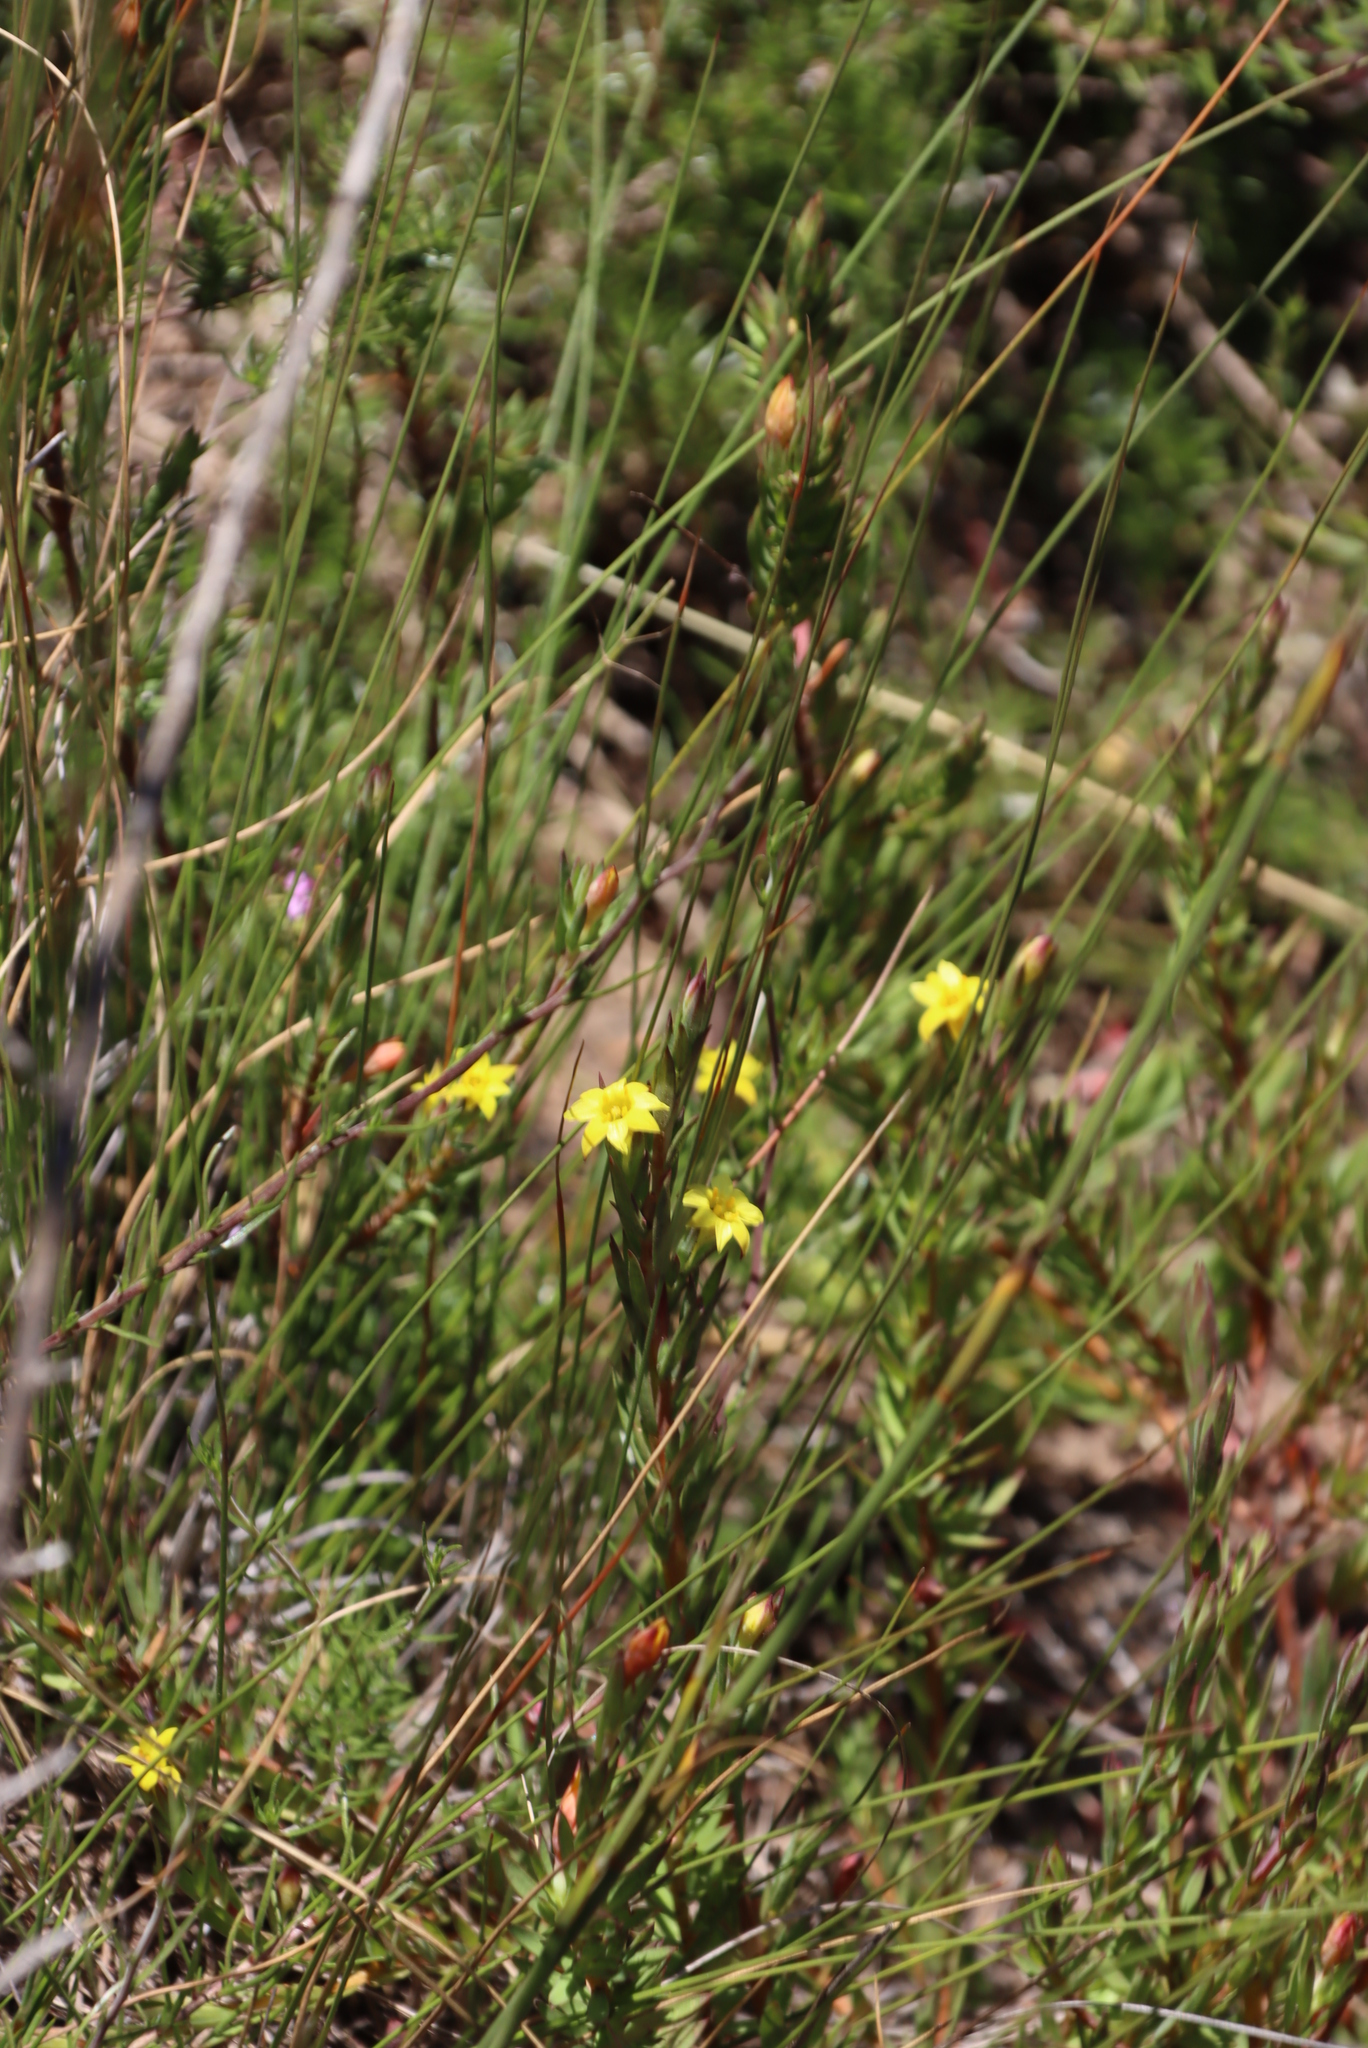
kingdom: Plantae
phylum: Tracheophyta
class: Magnoliopsida
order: Malvales
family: Thymelaeaceae
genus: Gnidia
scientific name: Gnidia juniperifolia
